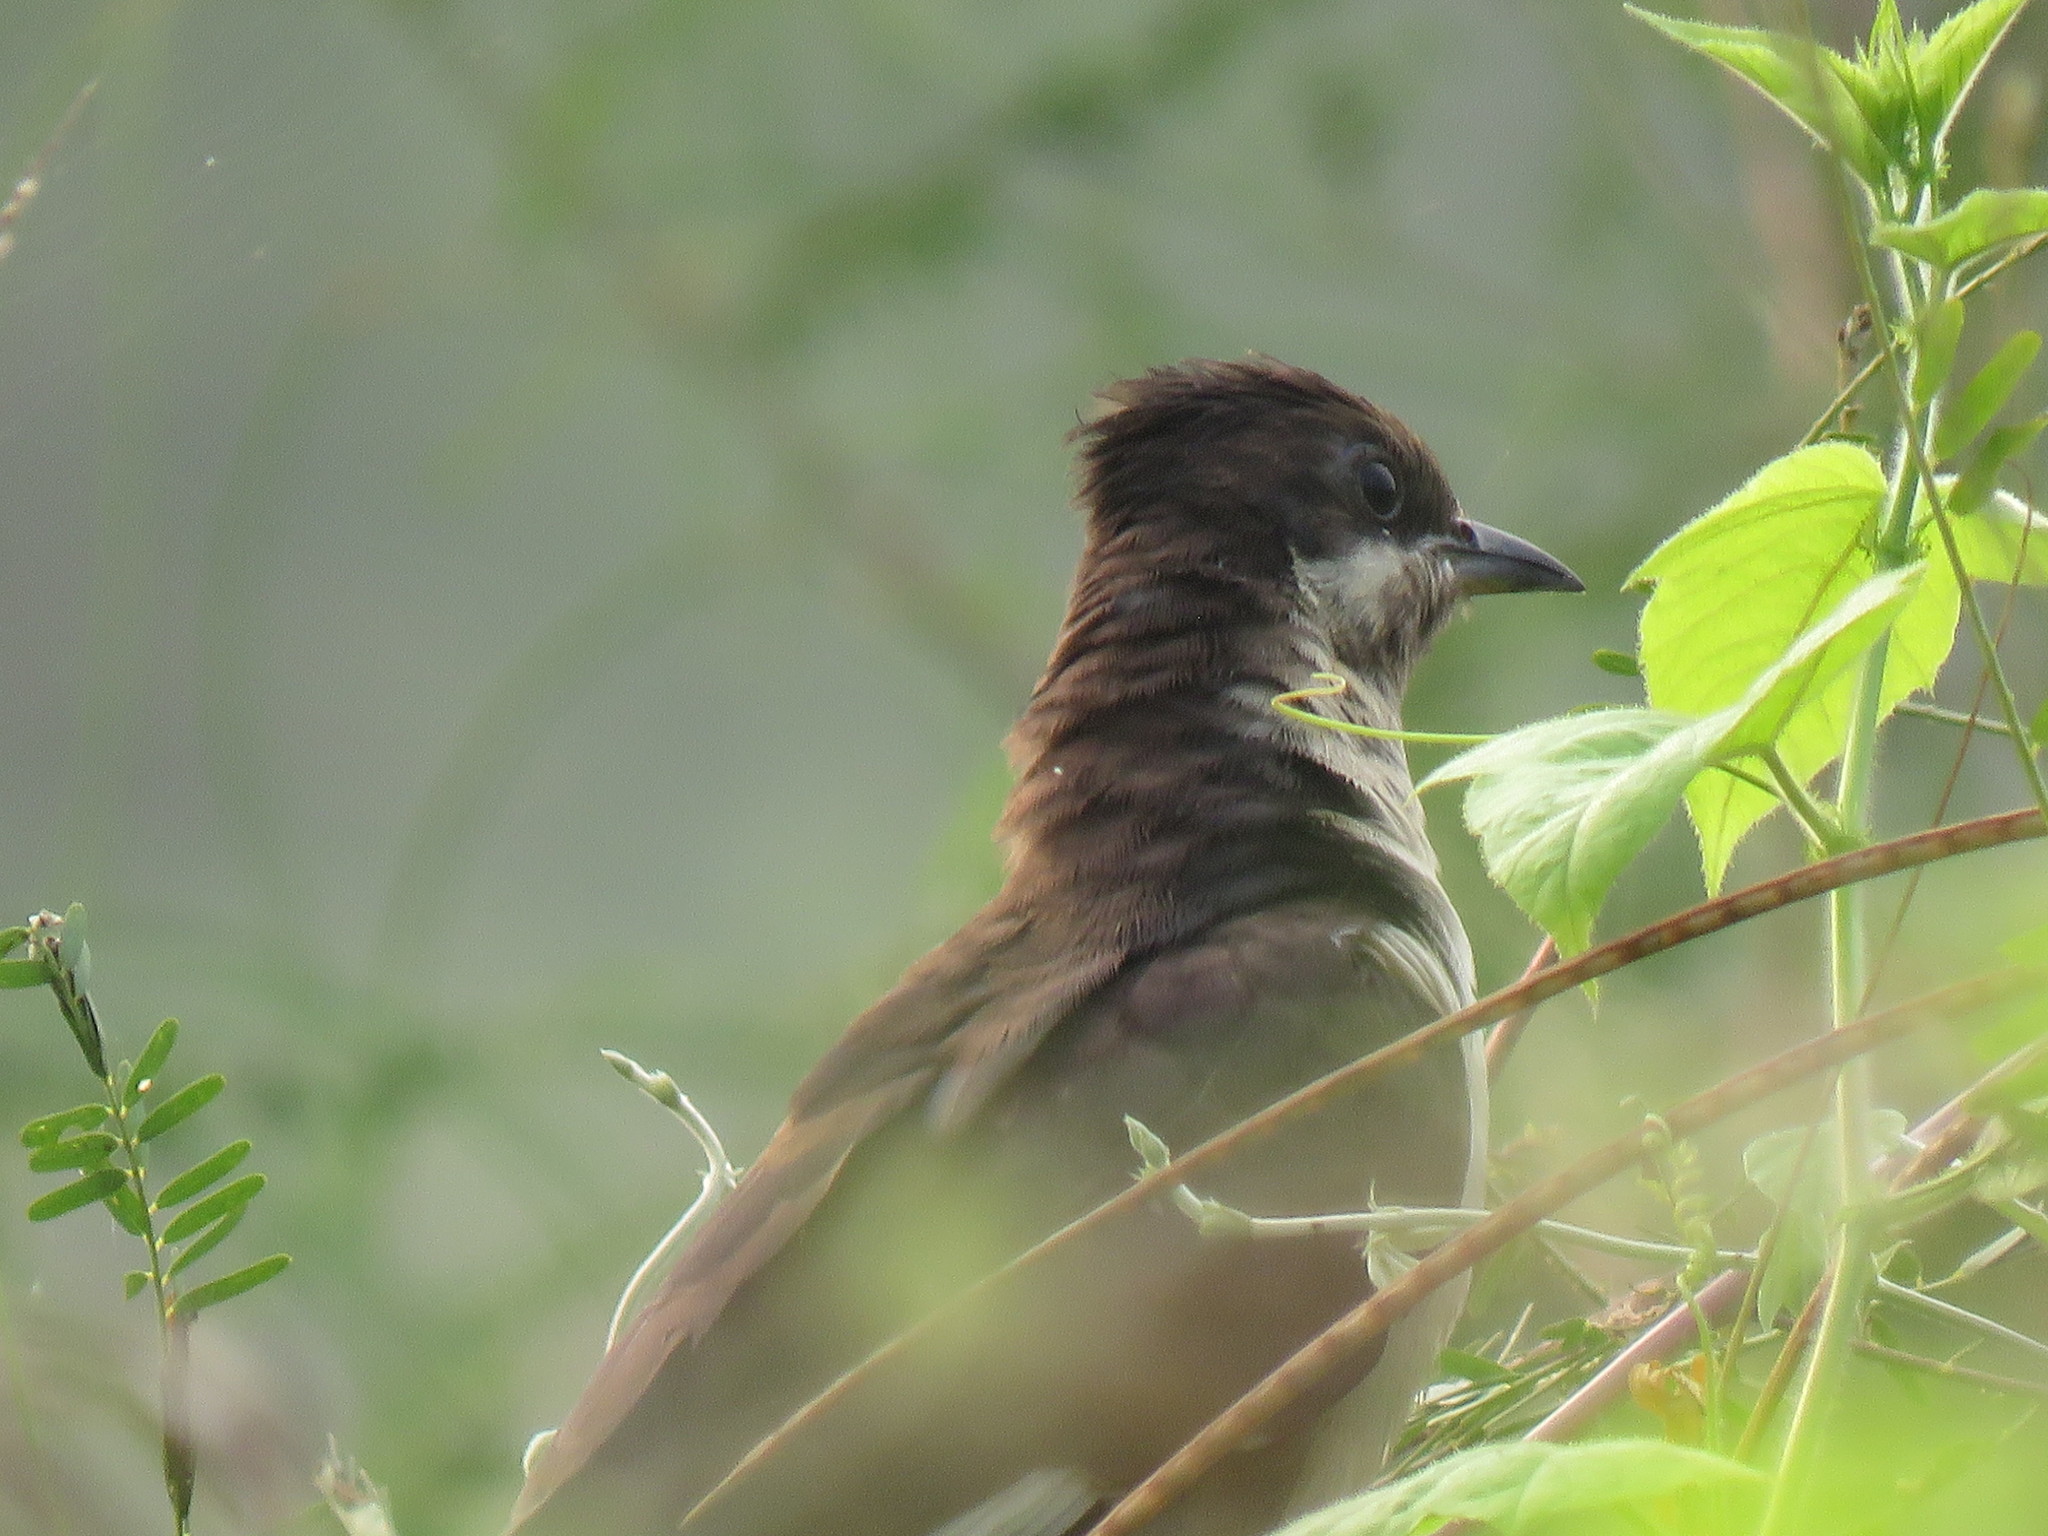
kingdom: Animalia
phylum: Chordata
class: Aves
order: Cuculiformes
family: Cuculidae
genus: Clamator
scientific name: Clamator jacobinus
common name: Jacobin cuckoo
